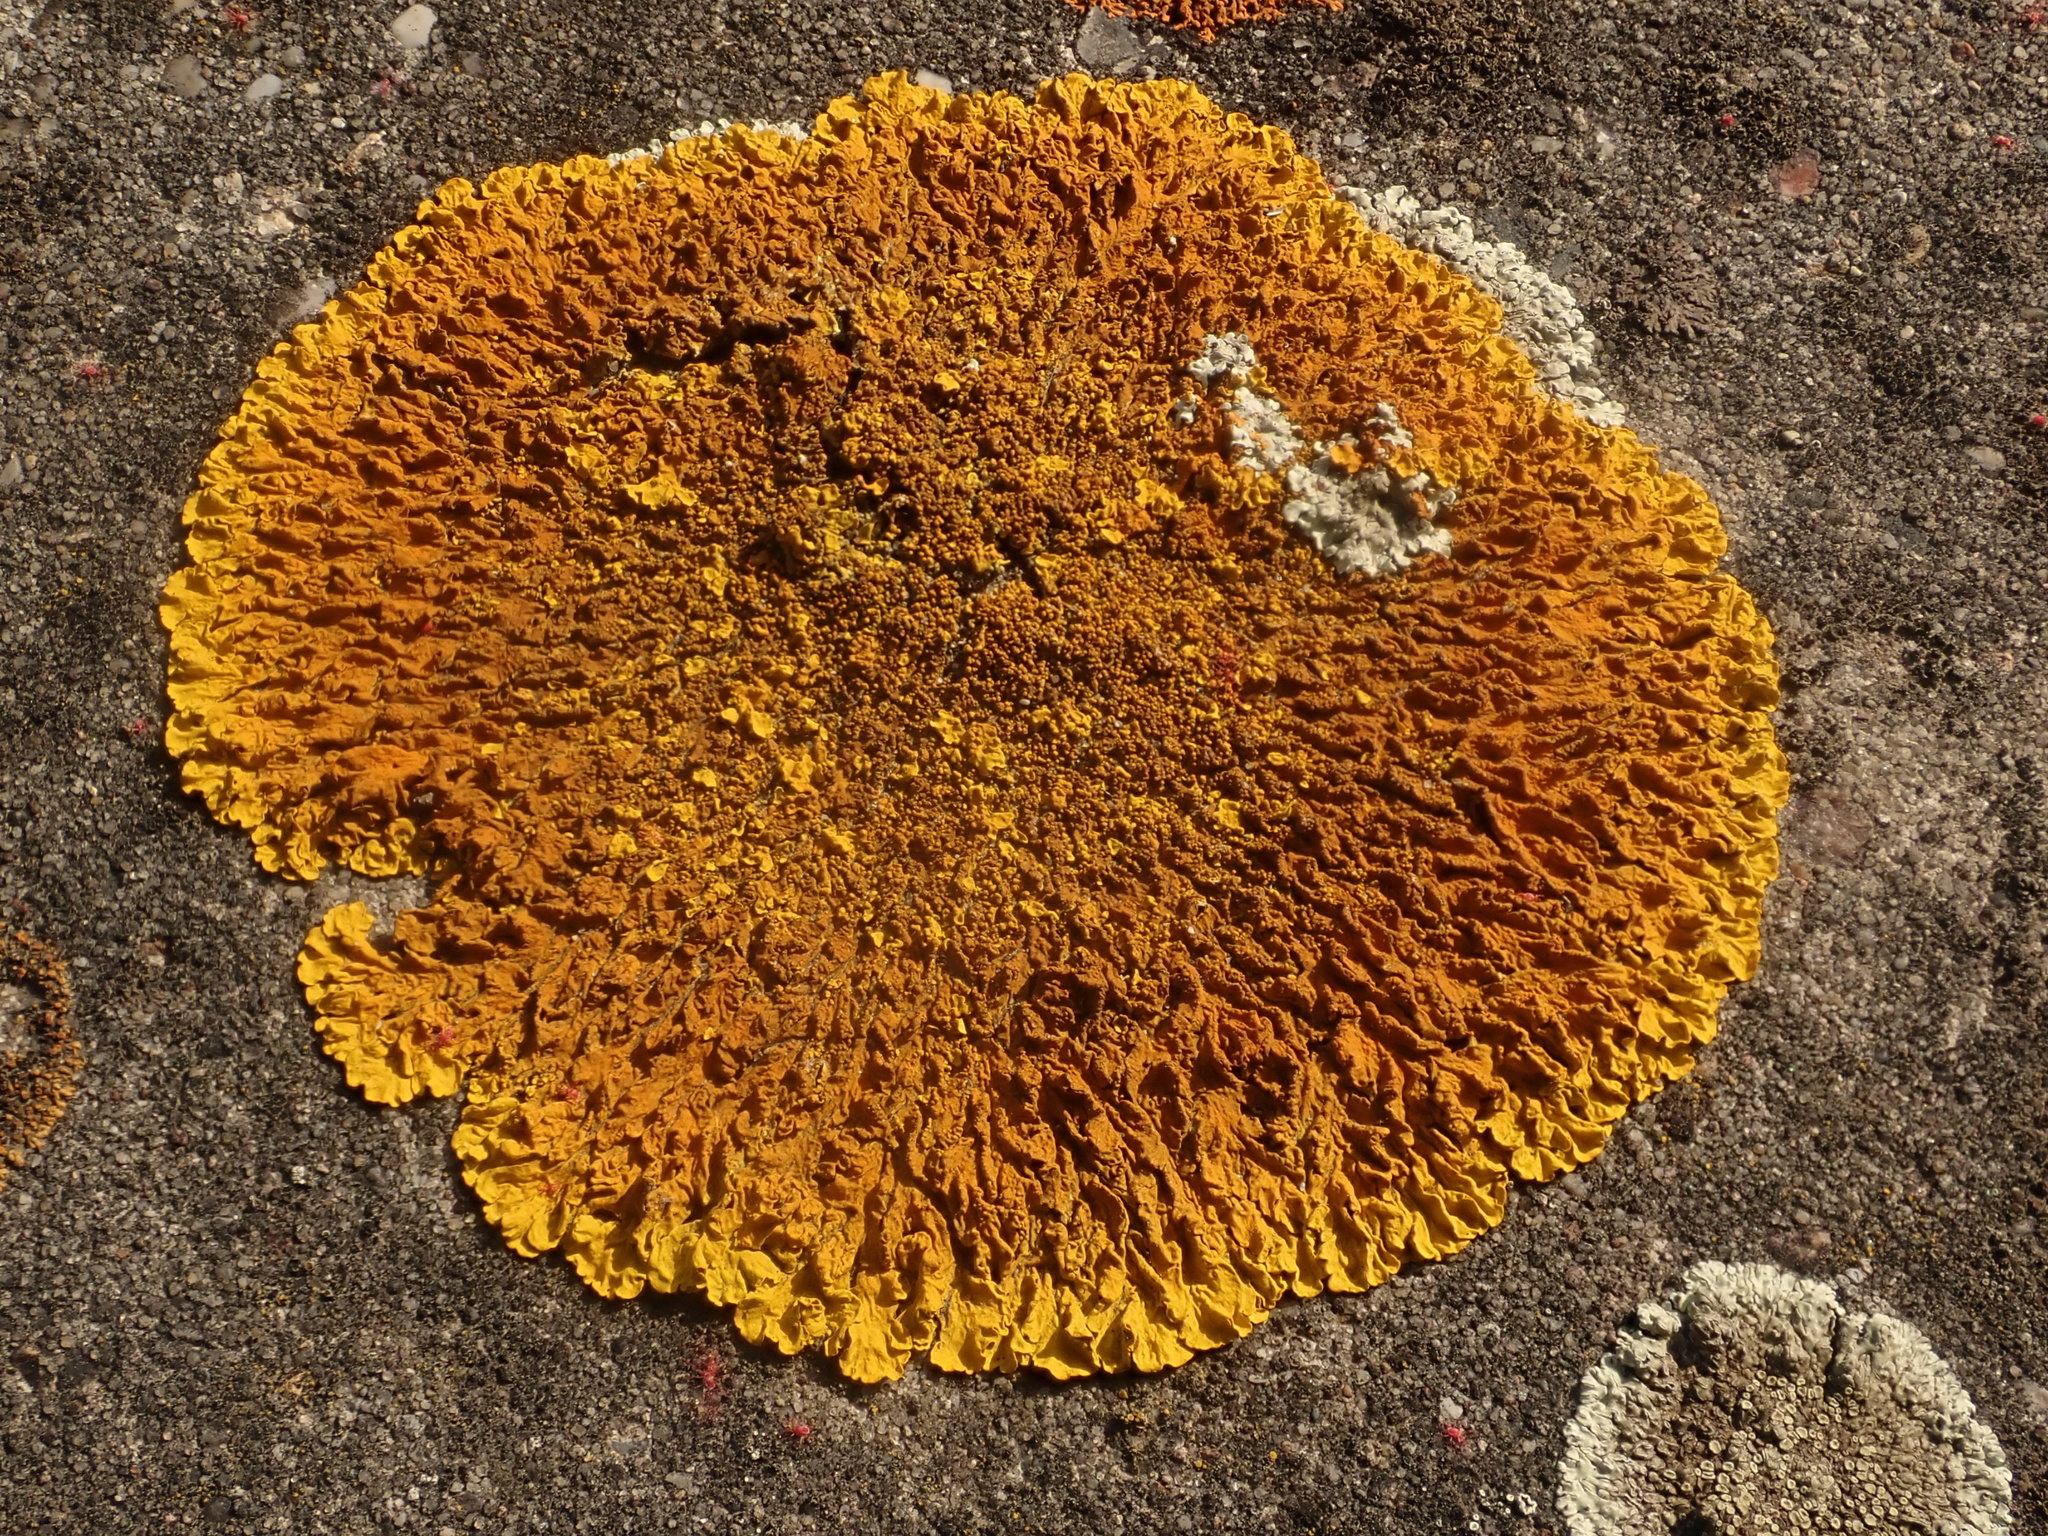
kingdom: Fungi
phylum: Ascomycota
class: Lecanoromycetes
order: Teloschistales
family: Teloschistaceae
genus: Xanthoria
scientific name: Xanthoria calcicola
